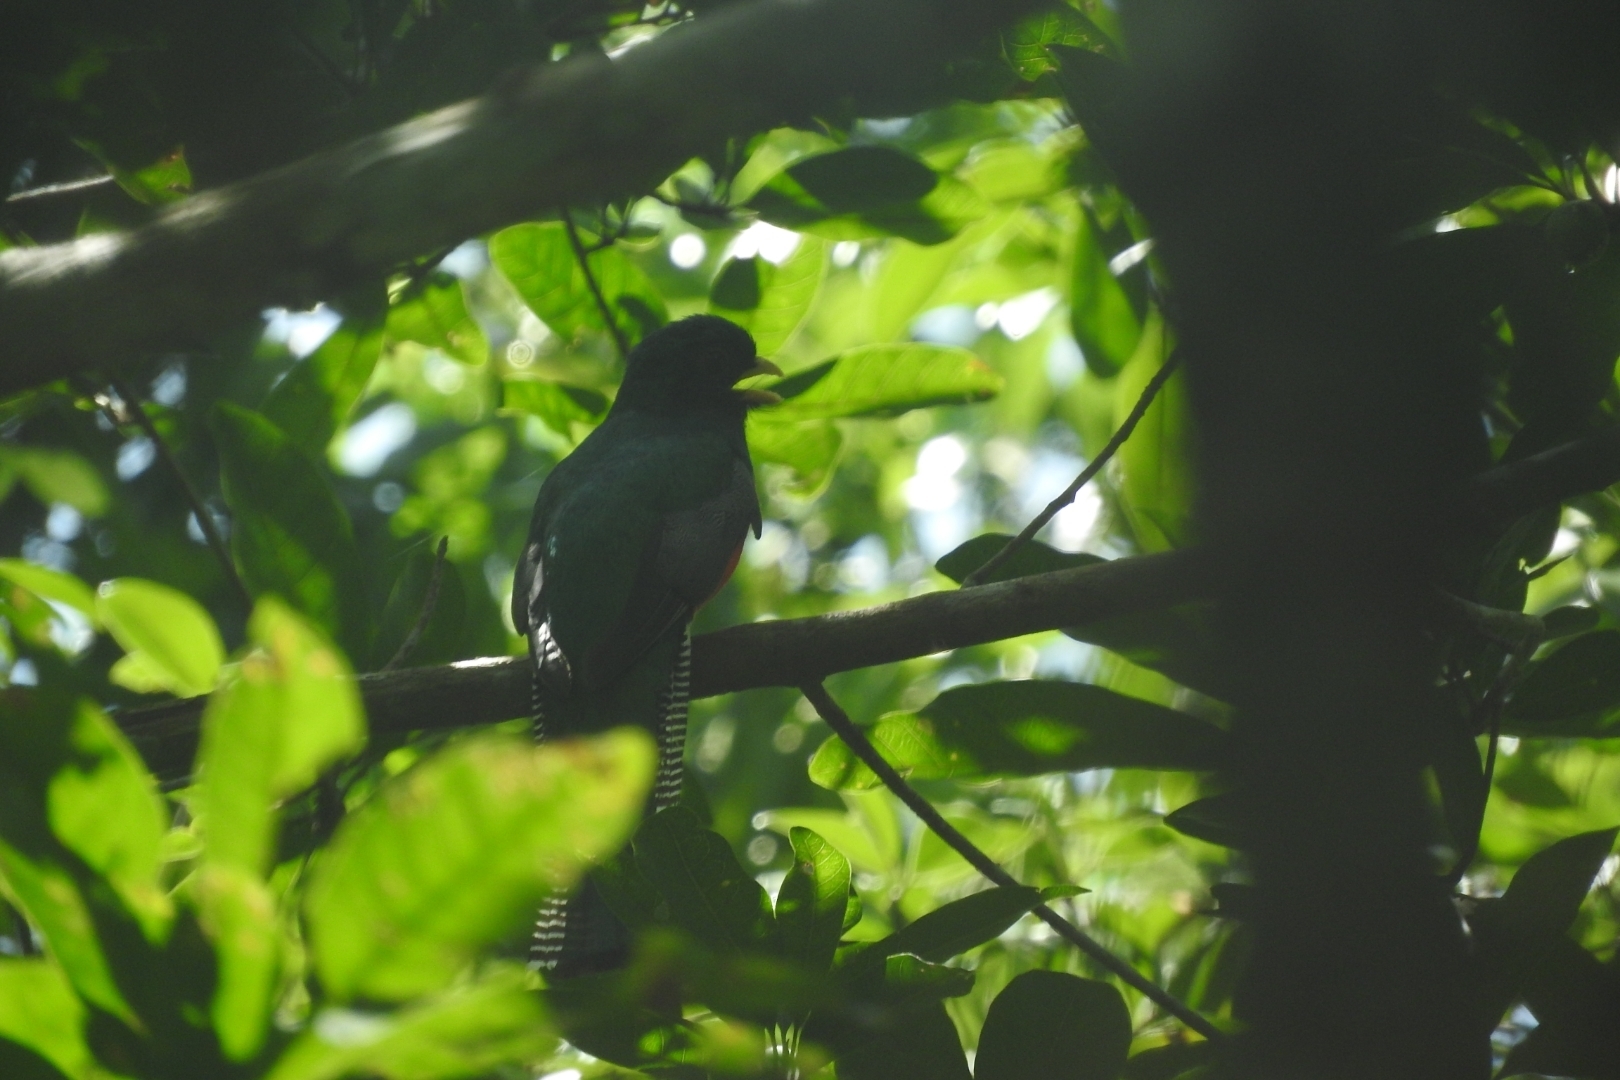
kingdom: Animalia
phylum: Chordata
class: Aves
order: Trogoniformes
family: Trogonidae
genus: Trogon
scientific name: Trogon collaris
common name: Collared trogon
